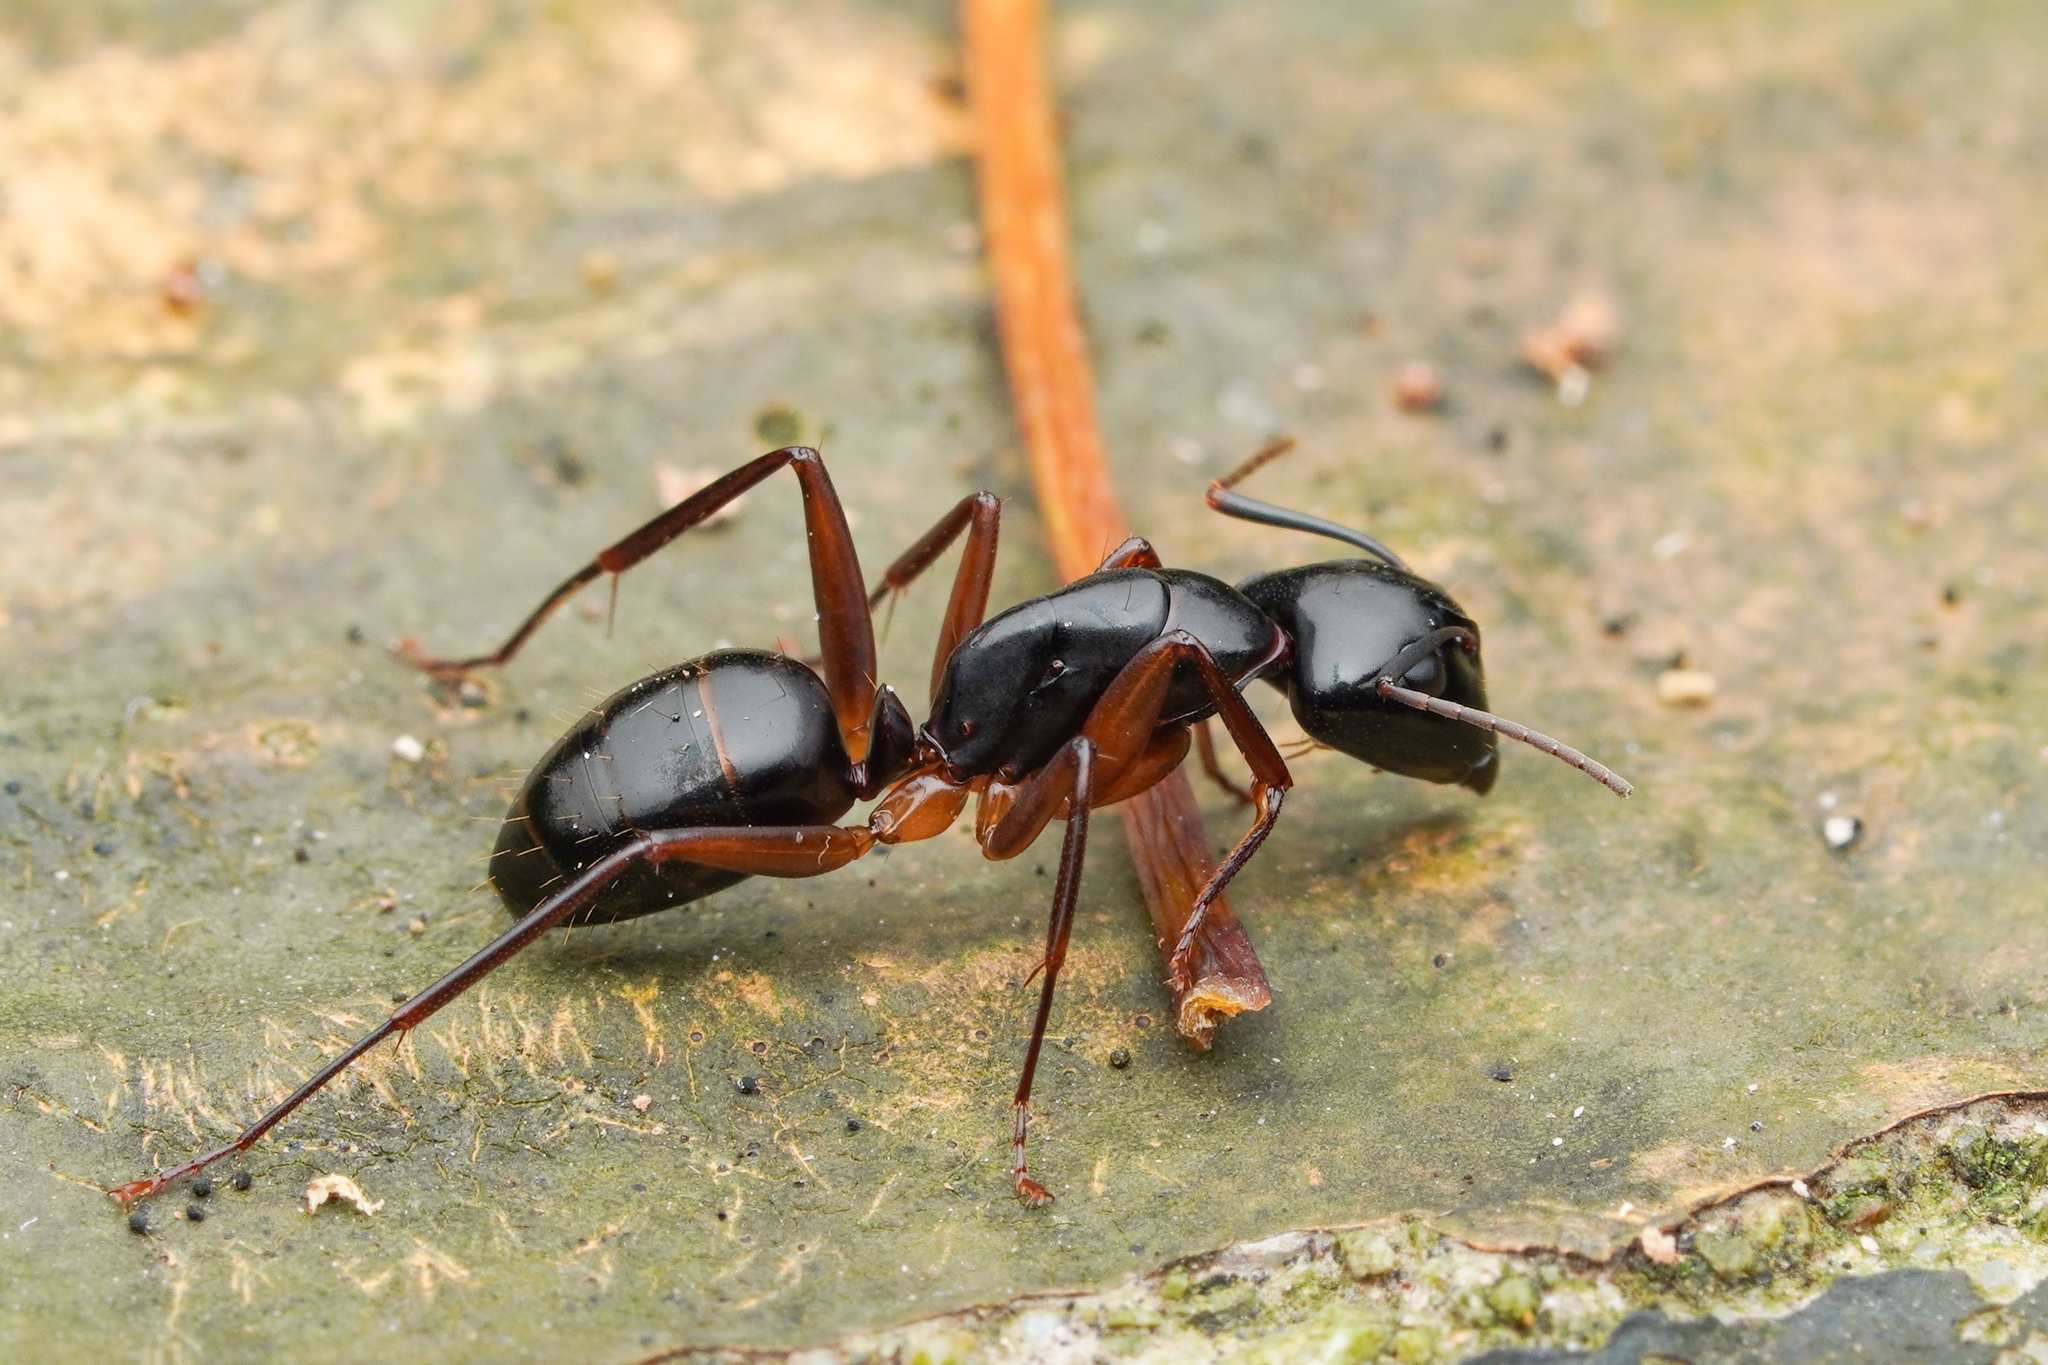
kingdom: Animalia
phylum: Arthropoda
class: Insecta
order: Hymenoptera
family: Formicidae
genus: Camponotus
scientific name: Camponotus kiusiuensis
